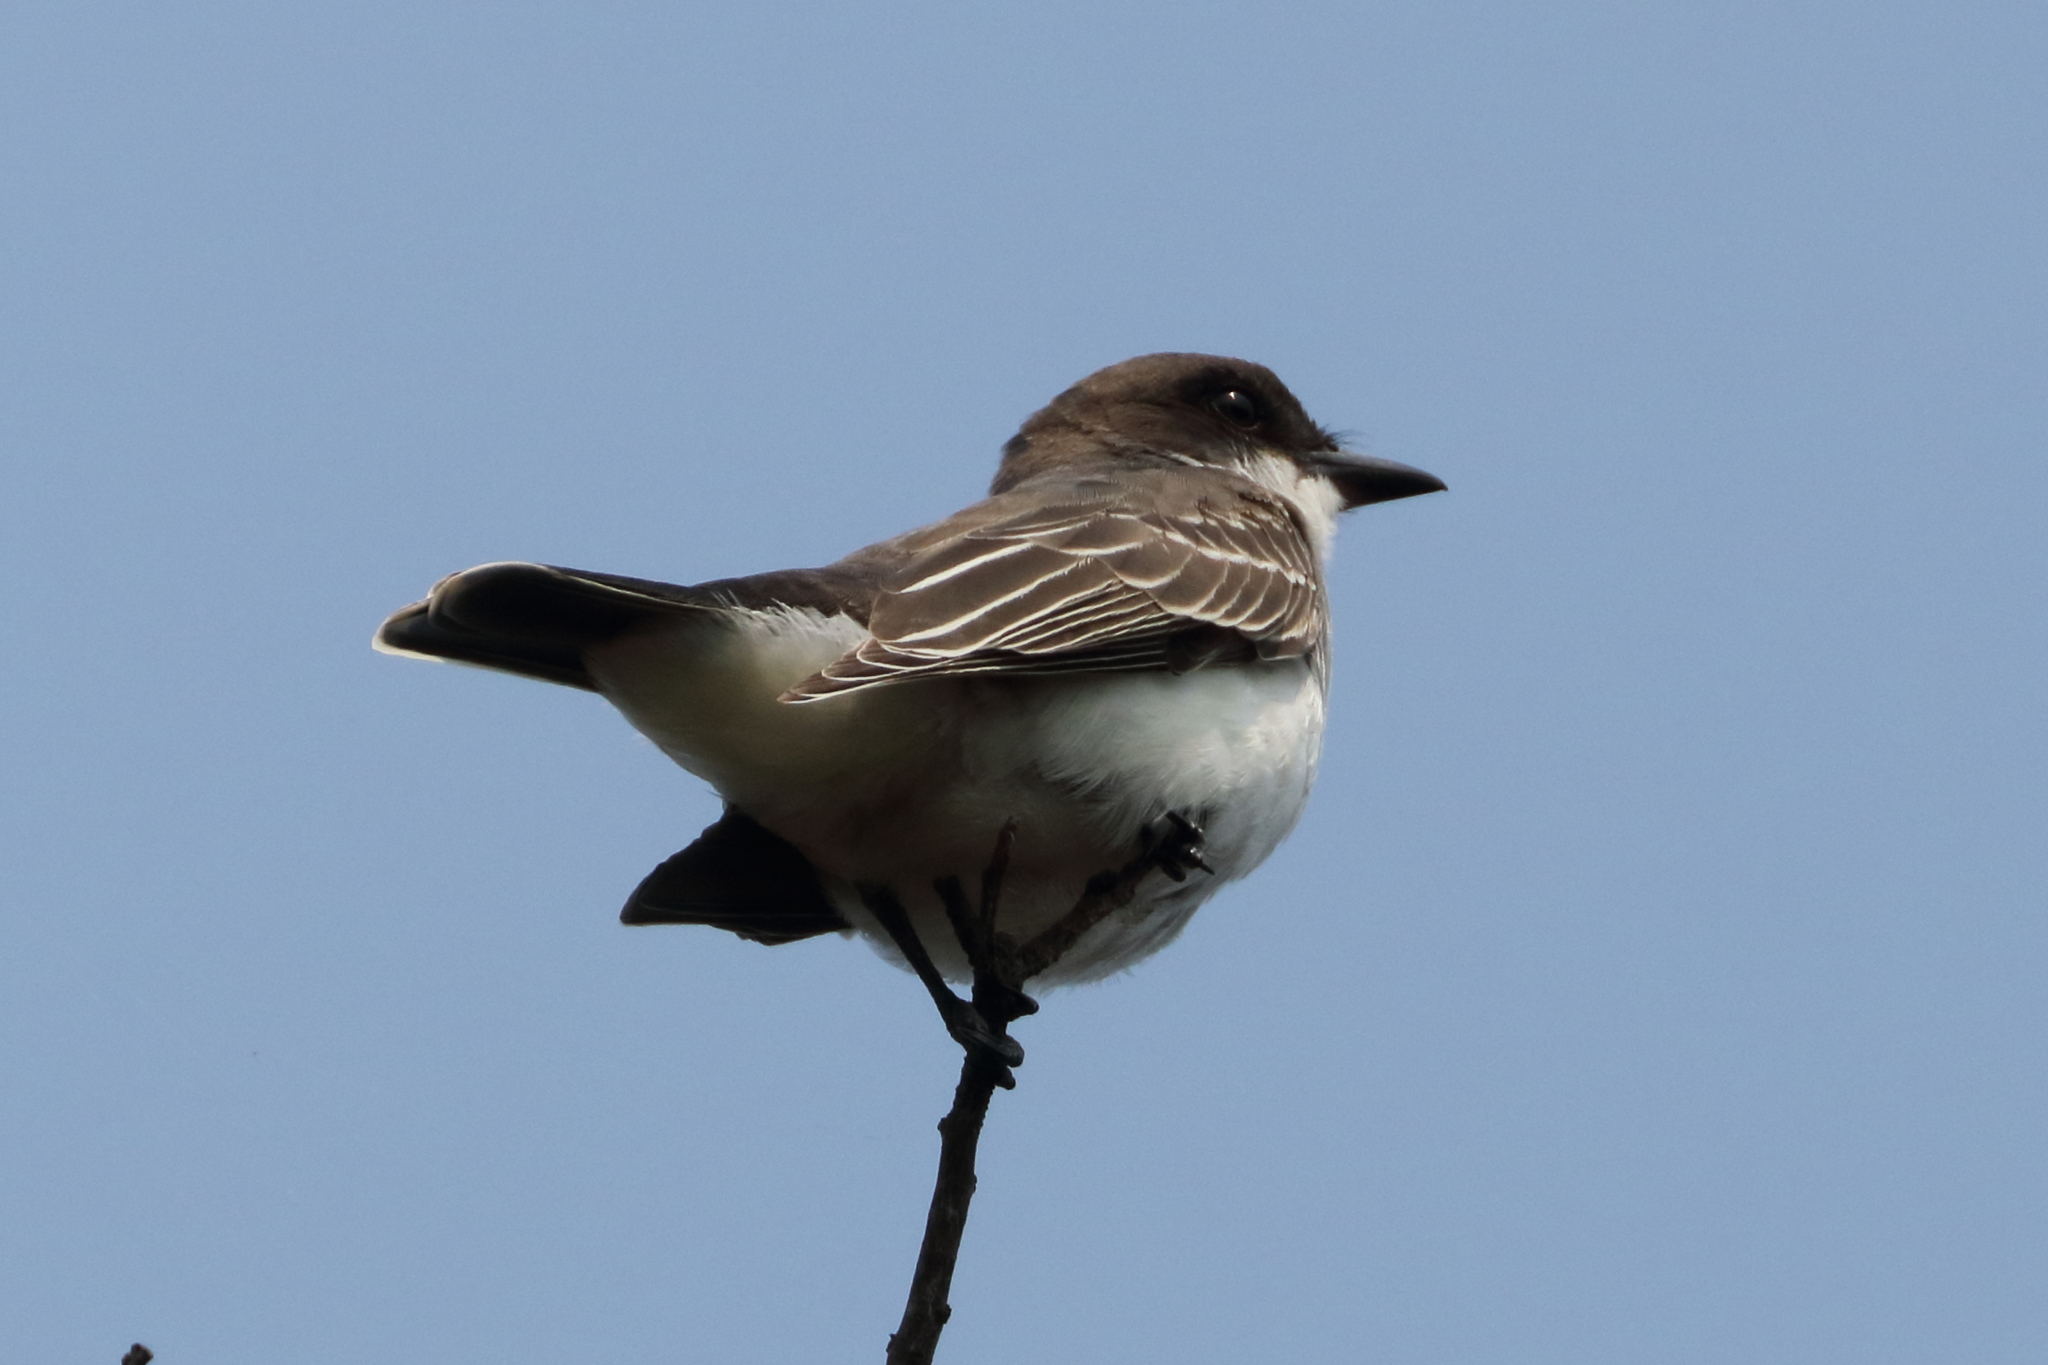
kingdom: Animalia
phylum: Chordata
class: Aves
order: Passeriformes
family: Tyrannidae
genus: Tyrannus
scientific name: Tyrannus tyrannus
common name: Eastern kingbird
